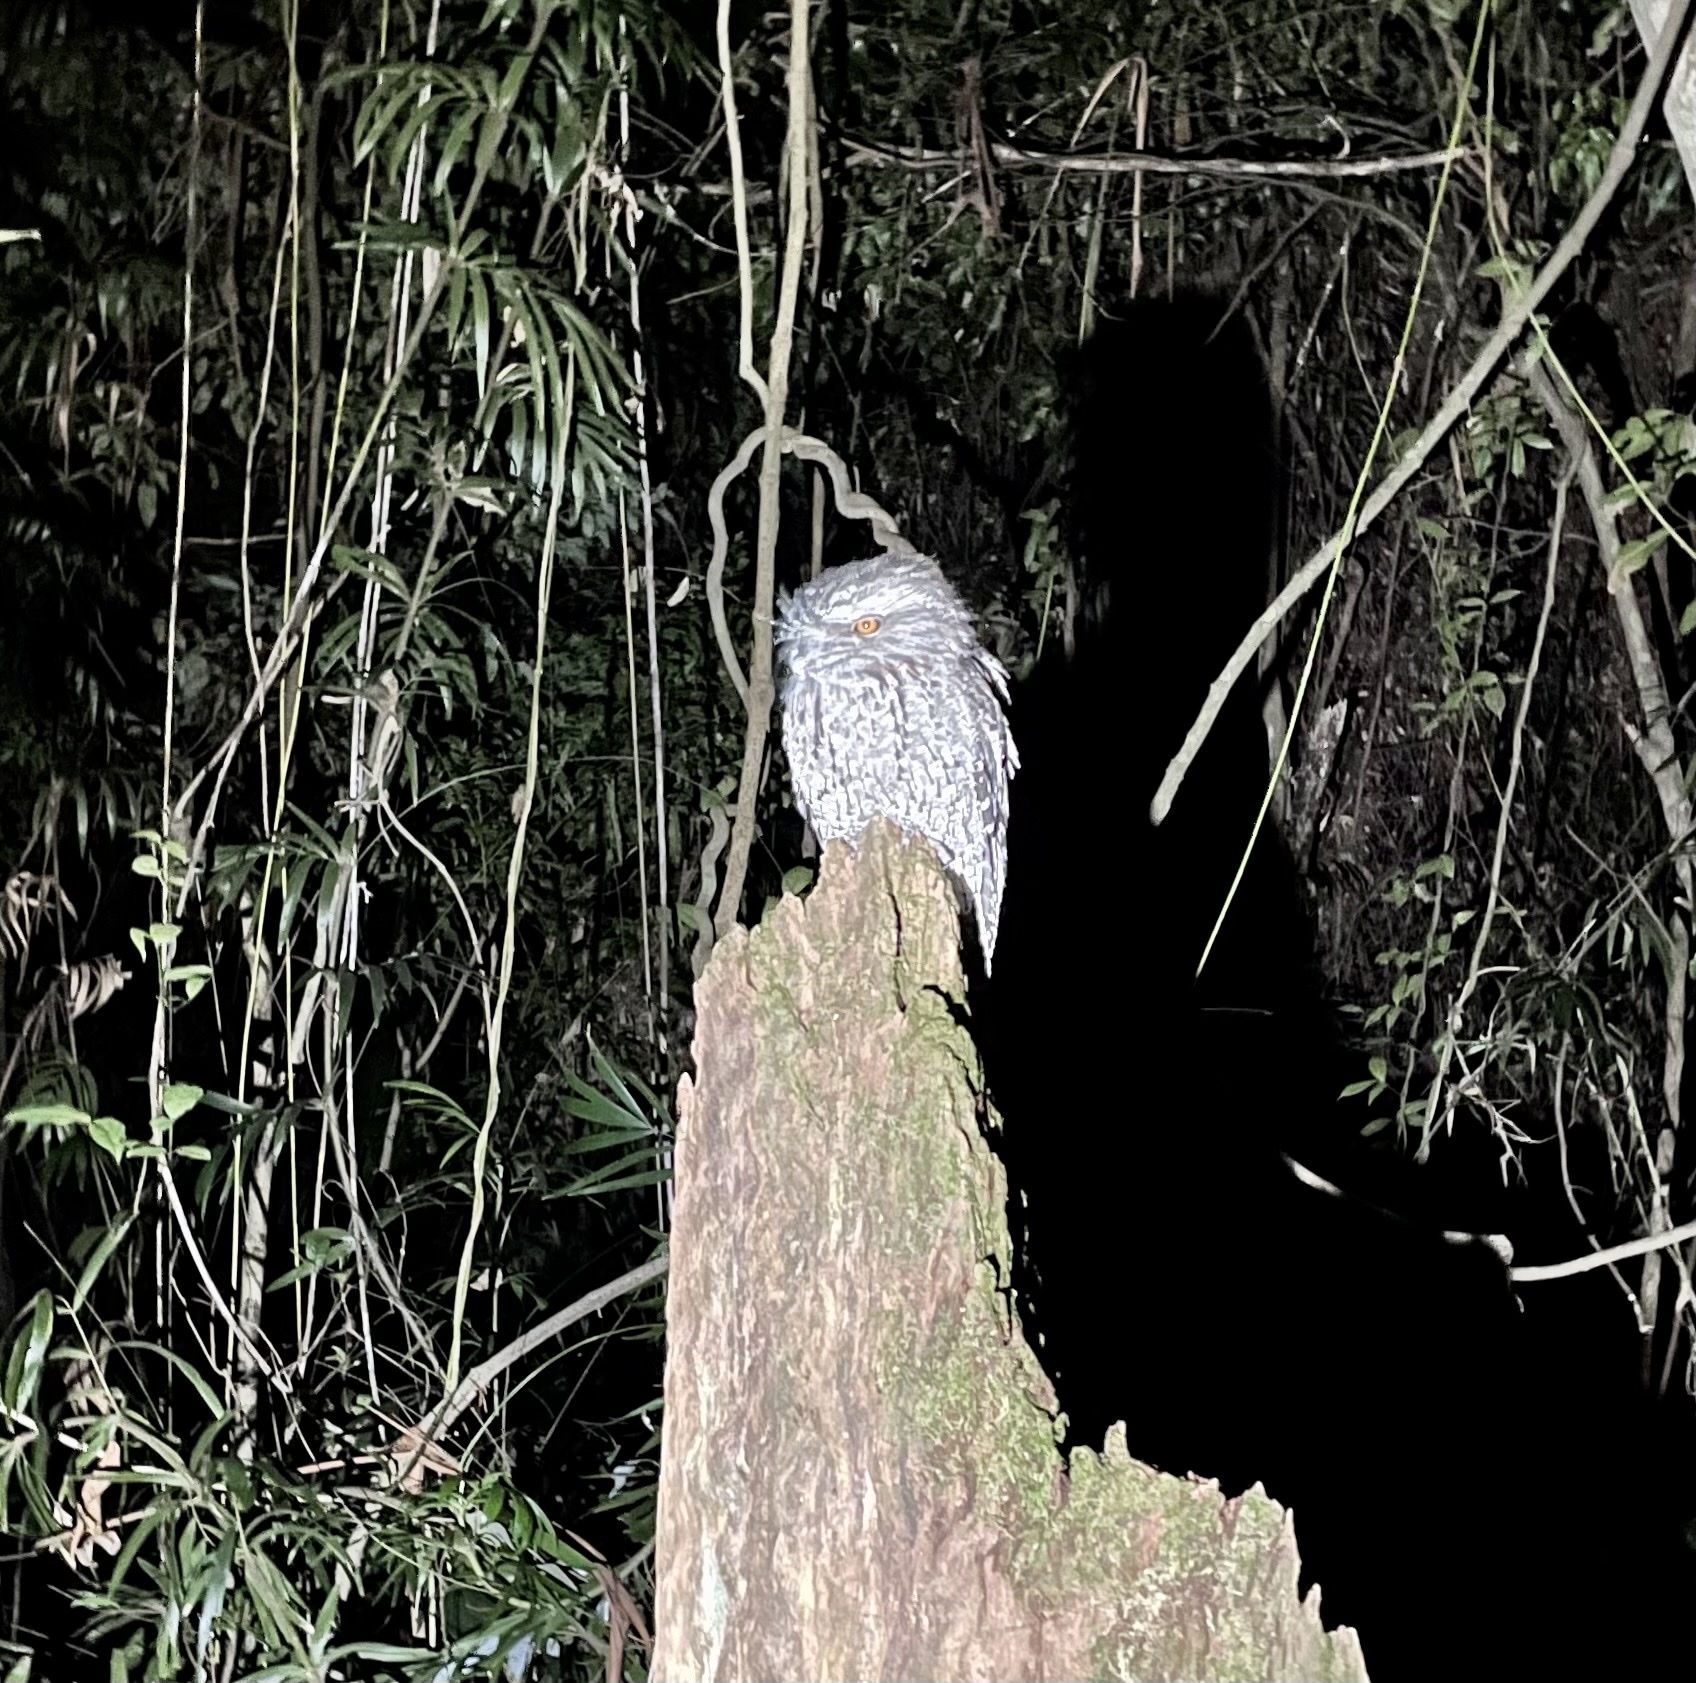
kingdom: Animalia
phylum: Chordata
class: Aves
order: Caprimulgiformes
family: Podargidae
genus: Podargus
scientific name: Podargus strigoides
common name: Tawny frogmouth
